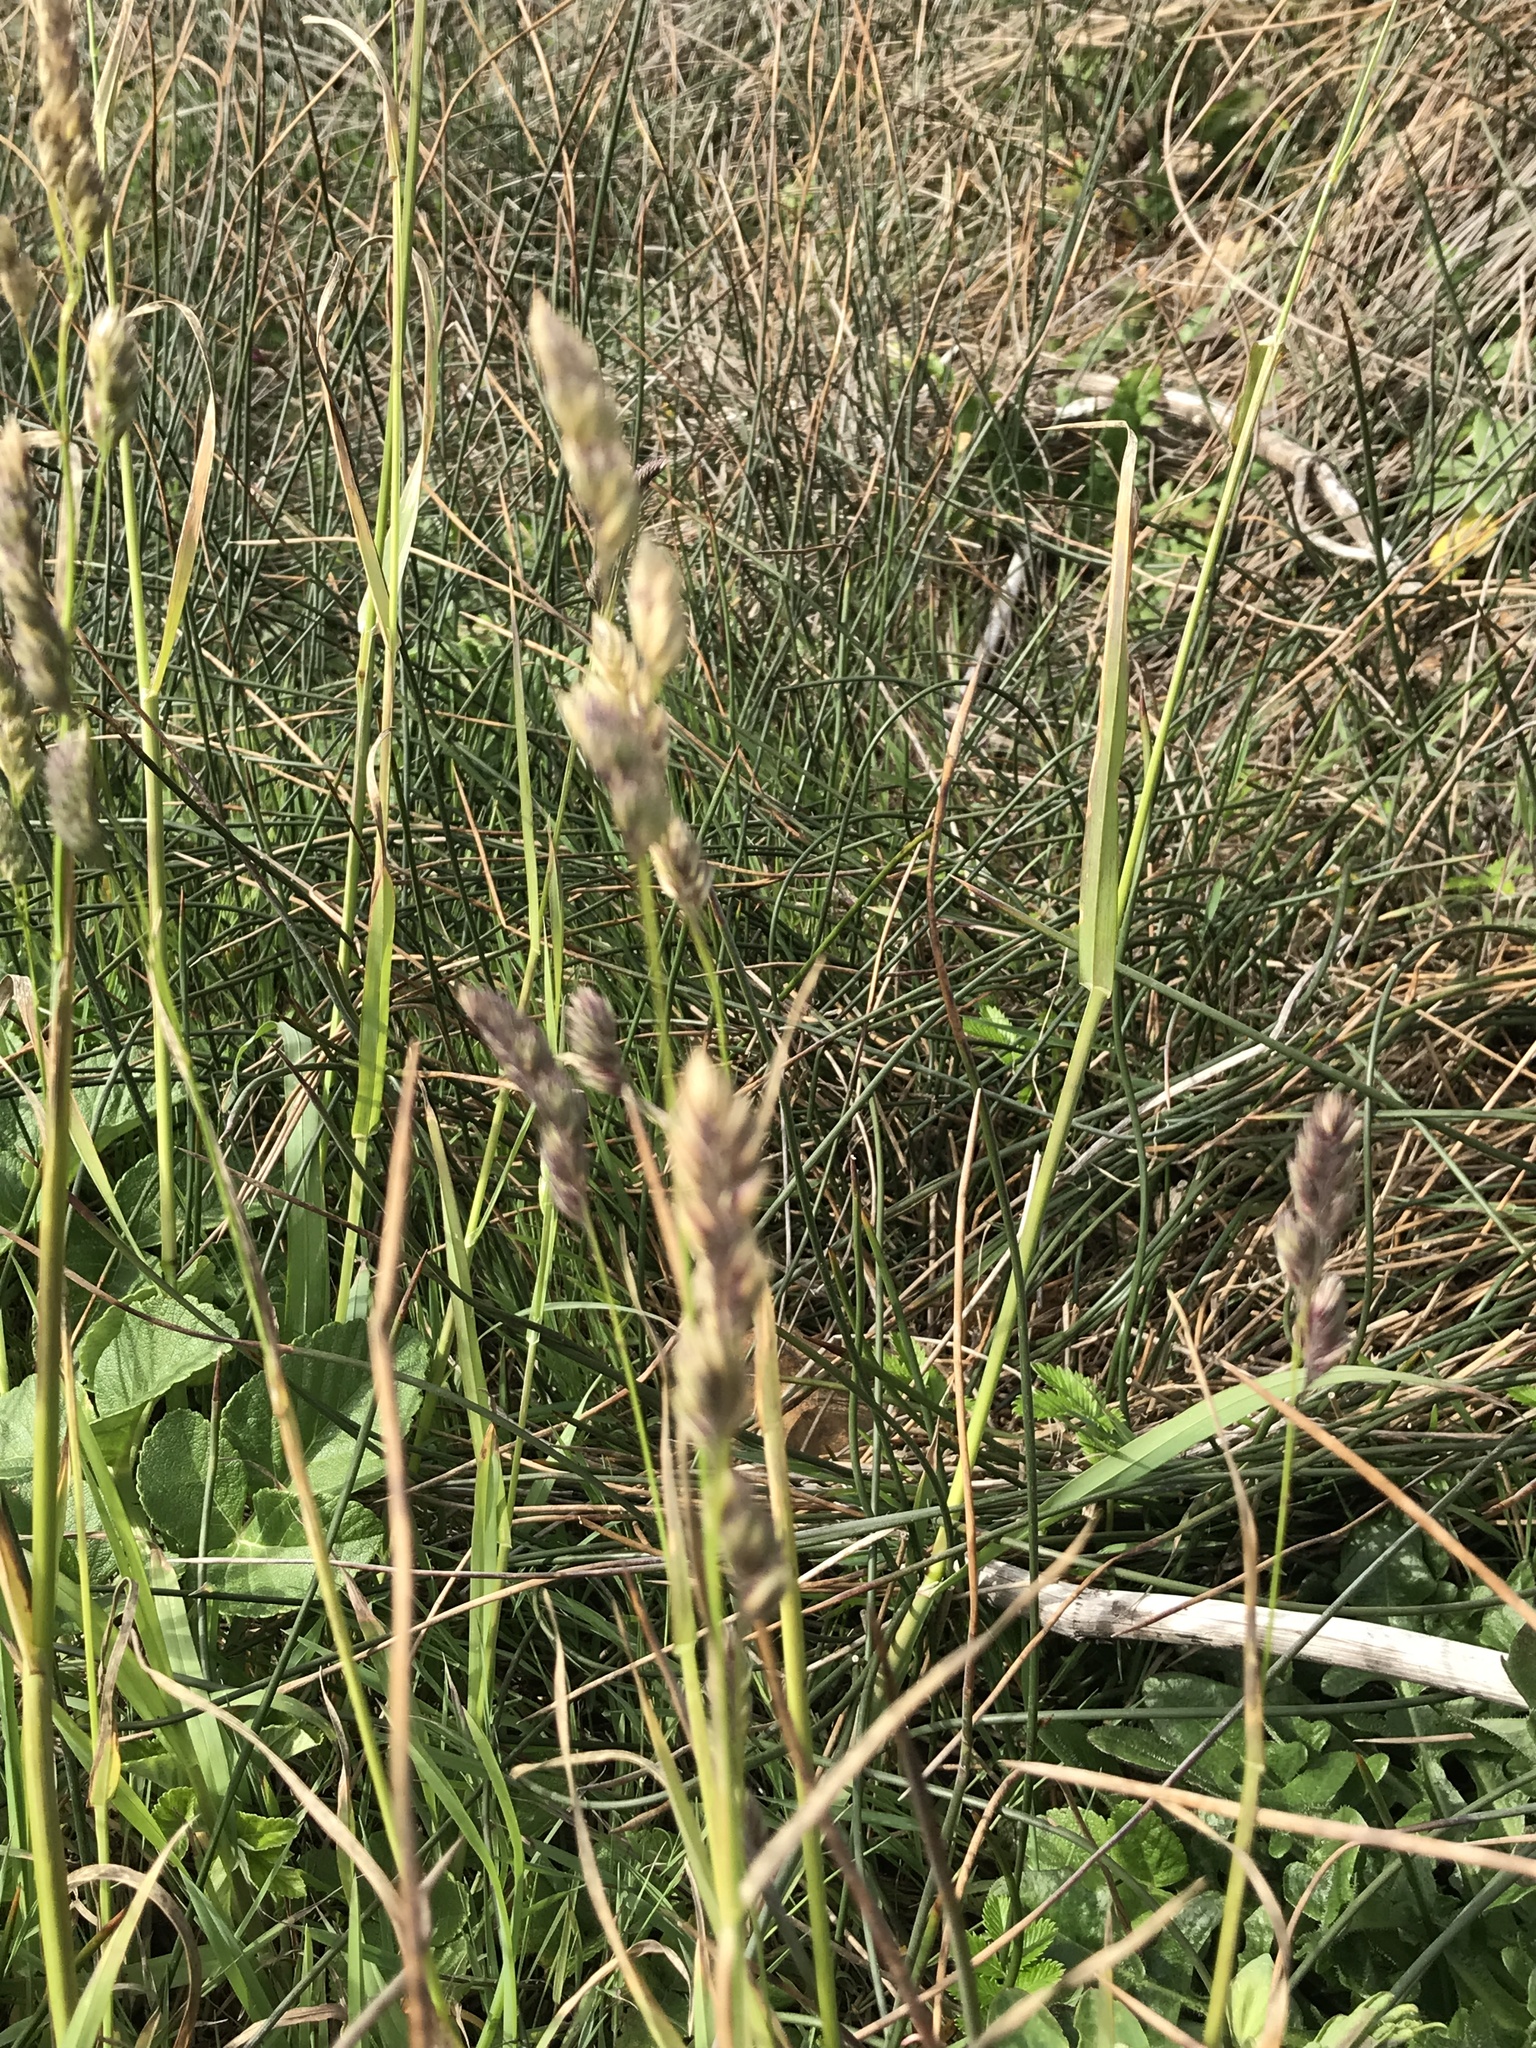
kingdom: Plantae
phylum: Tracheophyta
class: Liliopsida
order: Poales
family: Poaceae
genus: Dactylis
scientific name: Dactylis glomerata
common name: Orchardgrass
